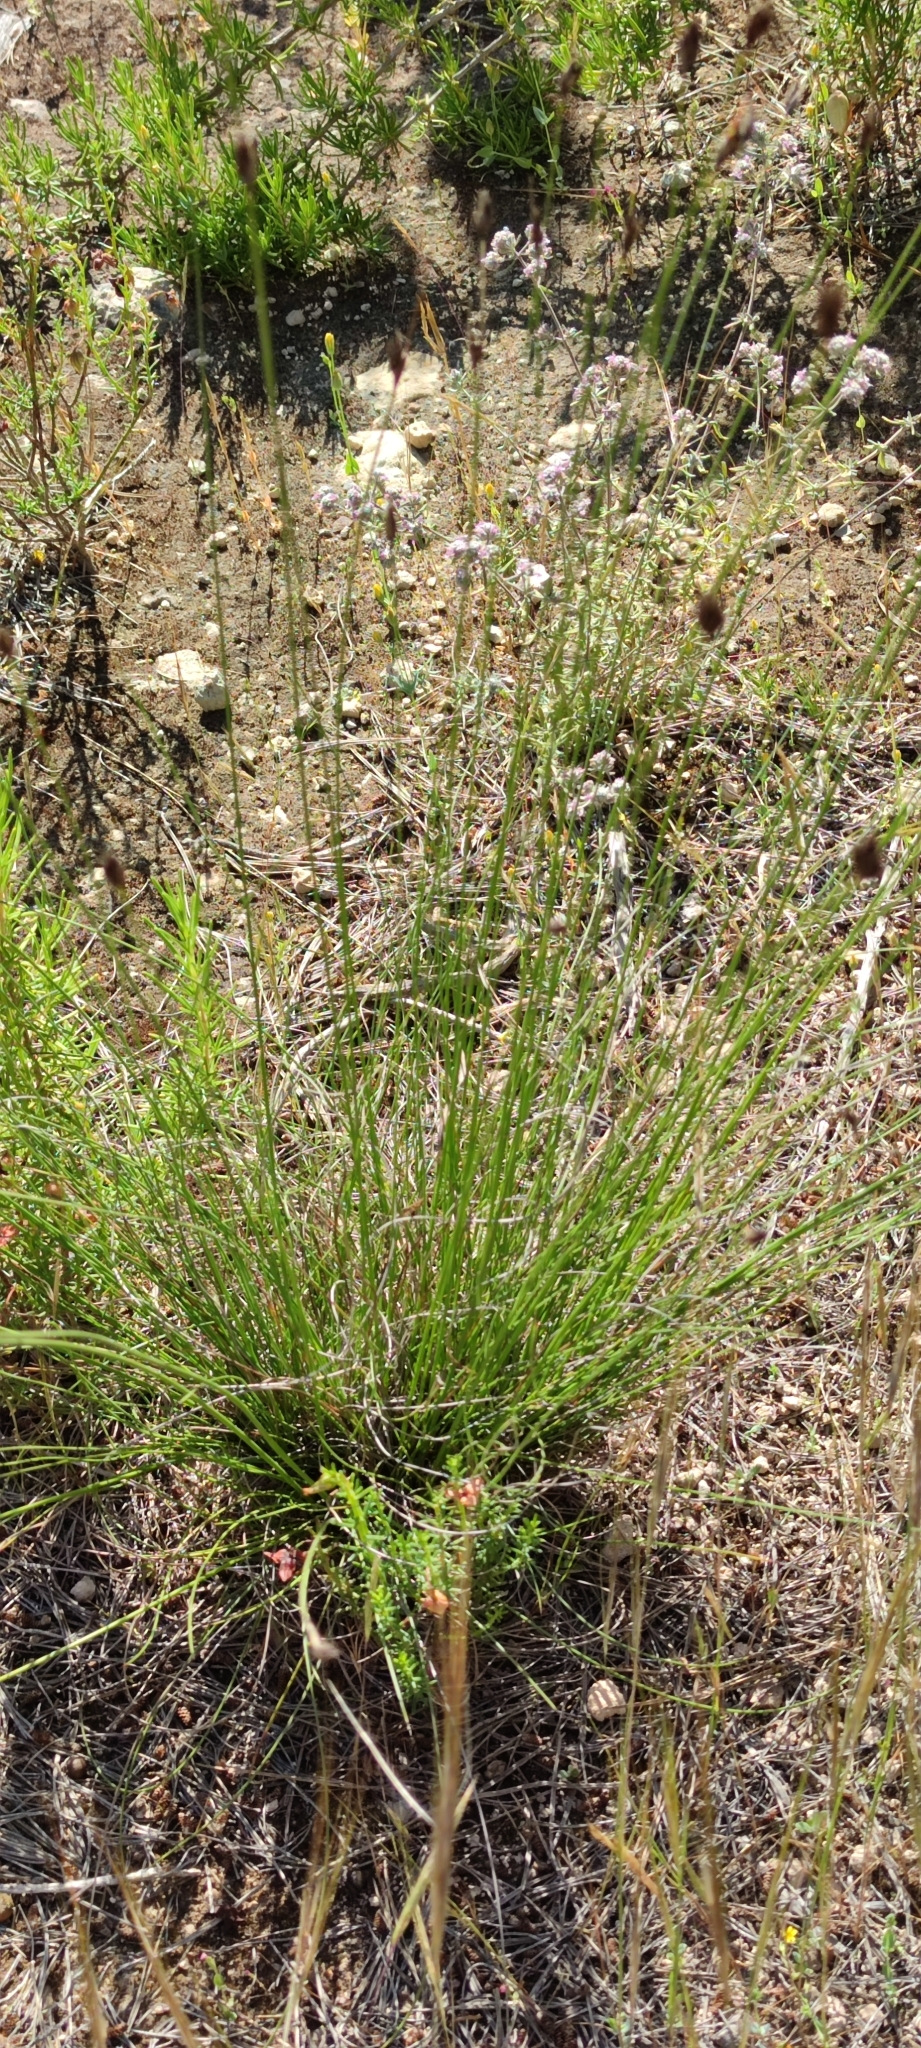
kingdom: Plantae
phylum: Tracheophyta
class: Liliopsida
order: Poales
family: Cyperaceae
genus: Schoenus
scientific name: Schoenus nigricans
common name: Black bog-rush
